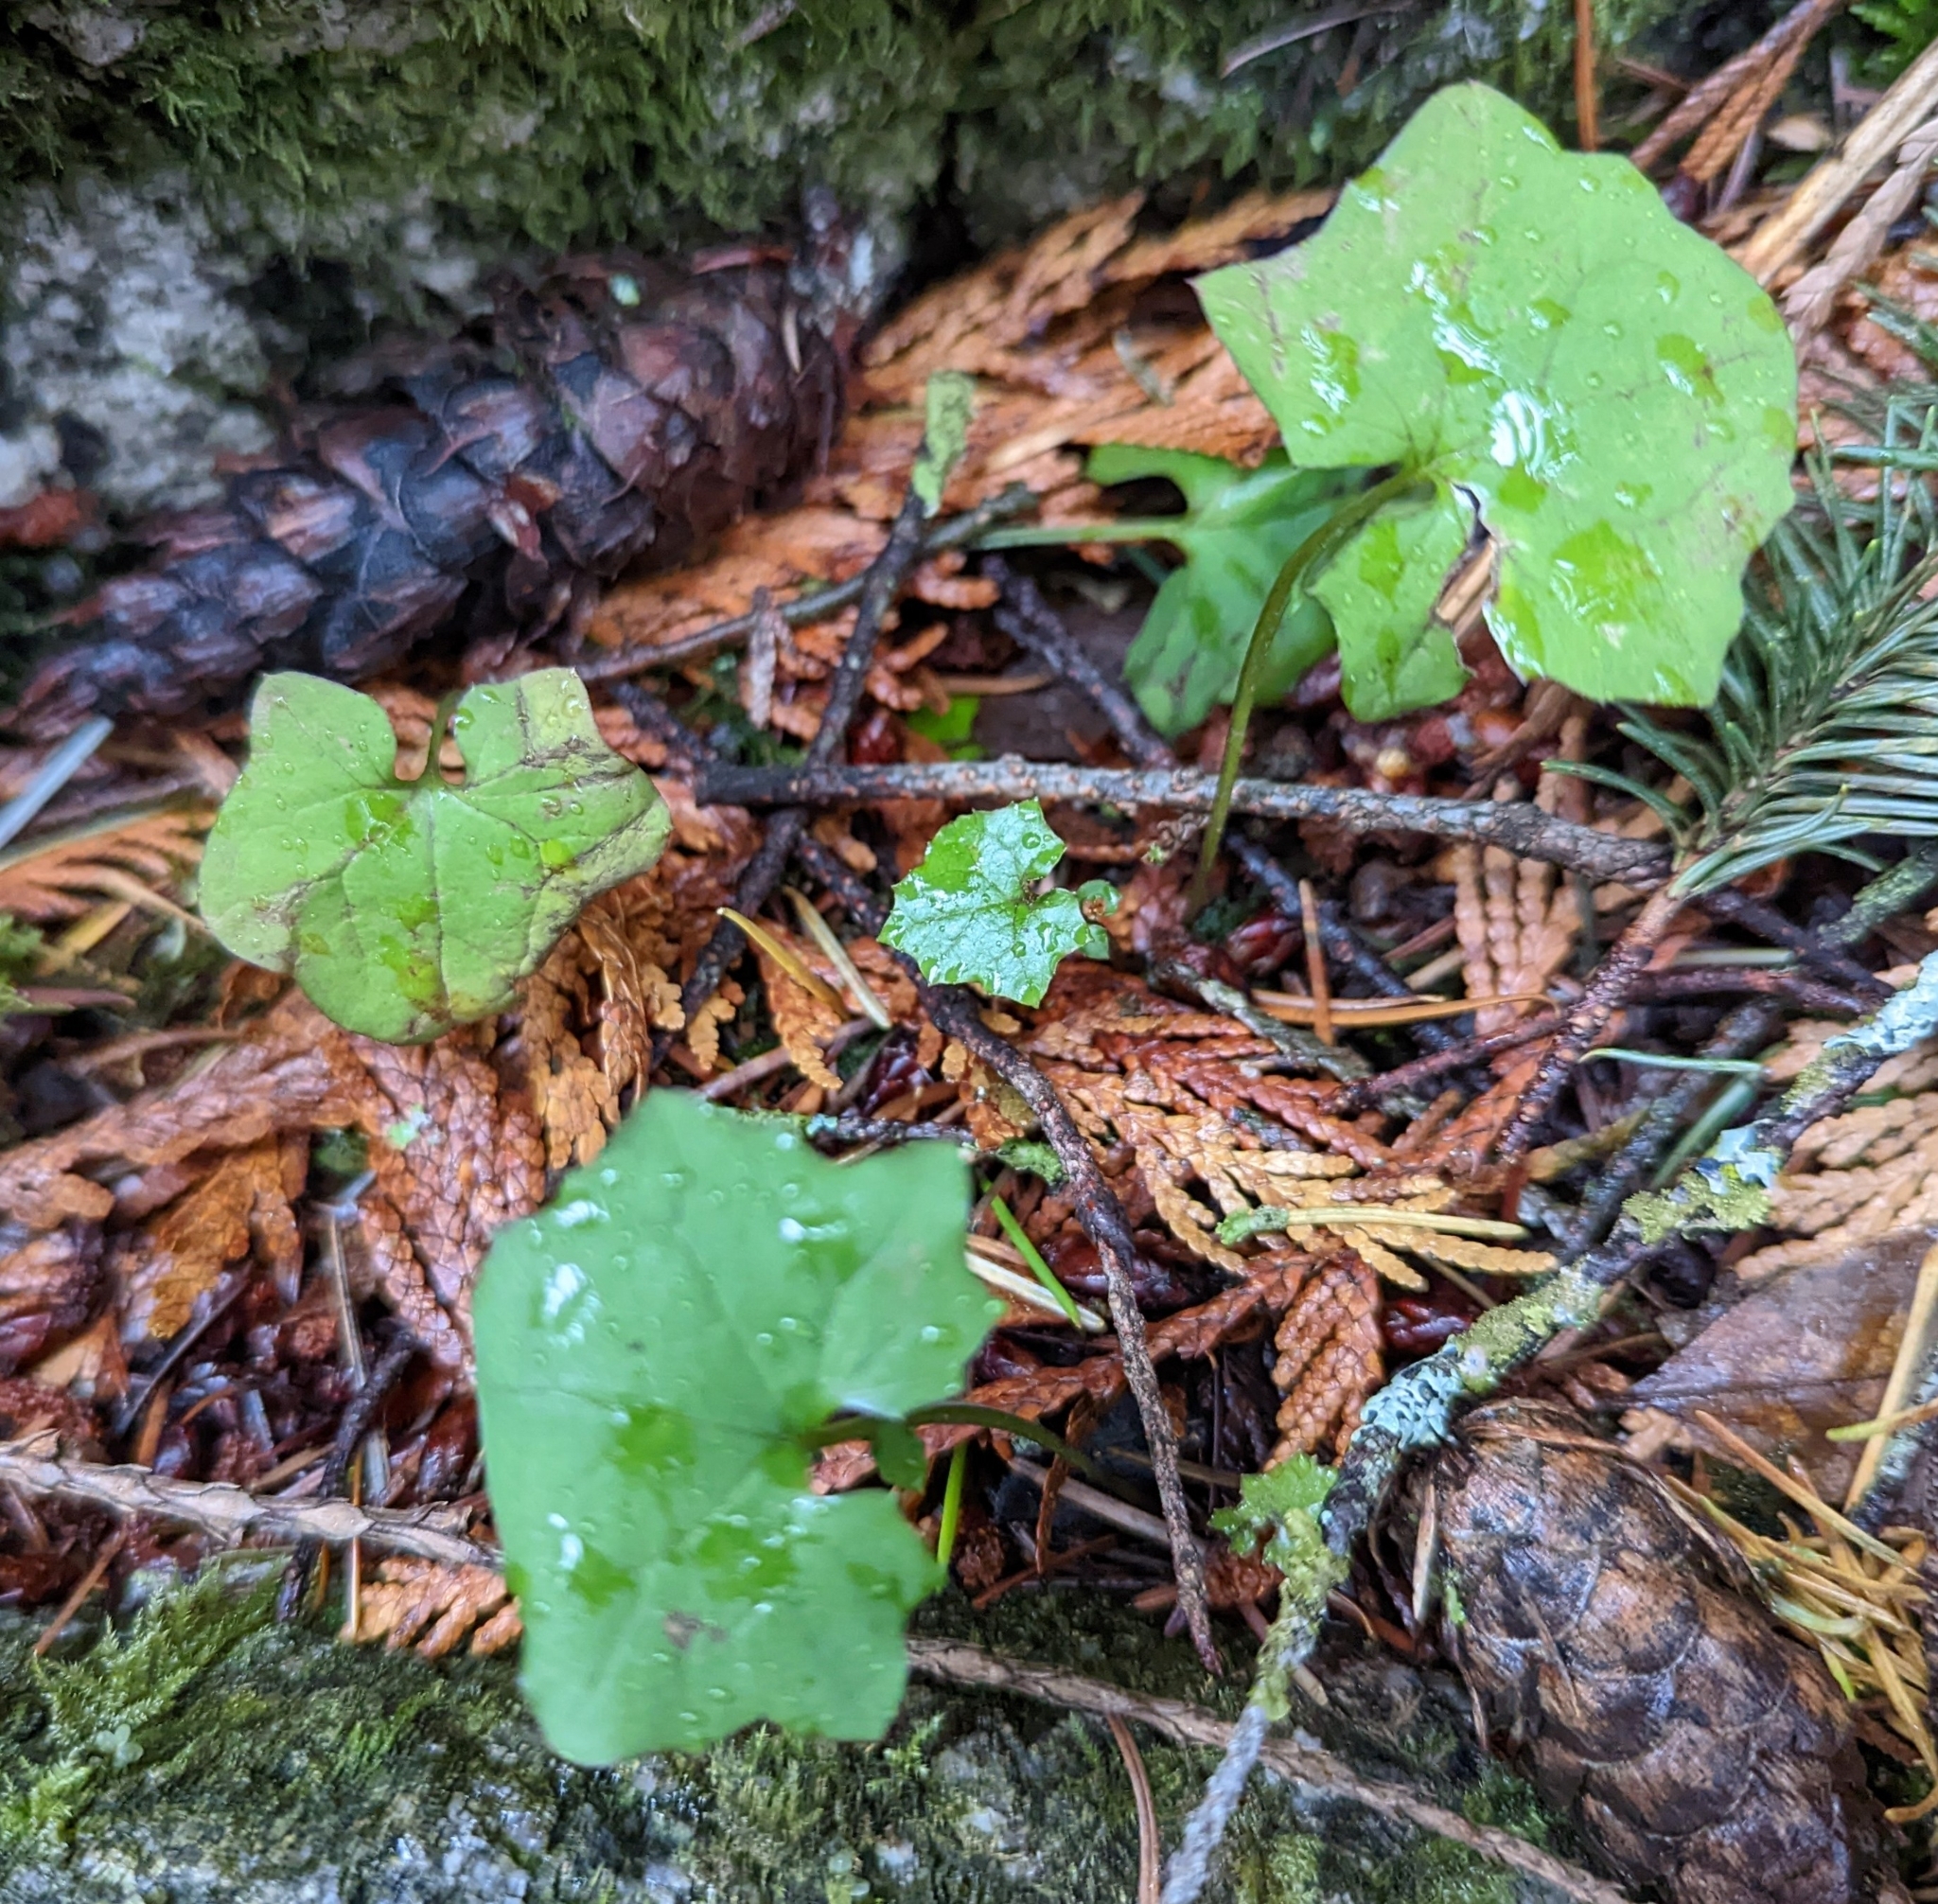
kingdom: Plantae
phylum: Tracheophyta
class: Magnoliopsida
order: Asterales
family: Asteraceae
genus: Mycelis
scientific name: Mycelis muralis
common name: Wall lettuce
